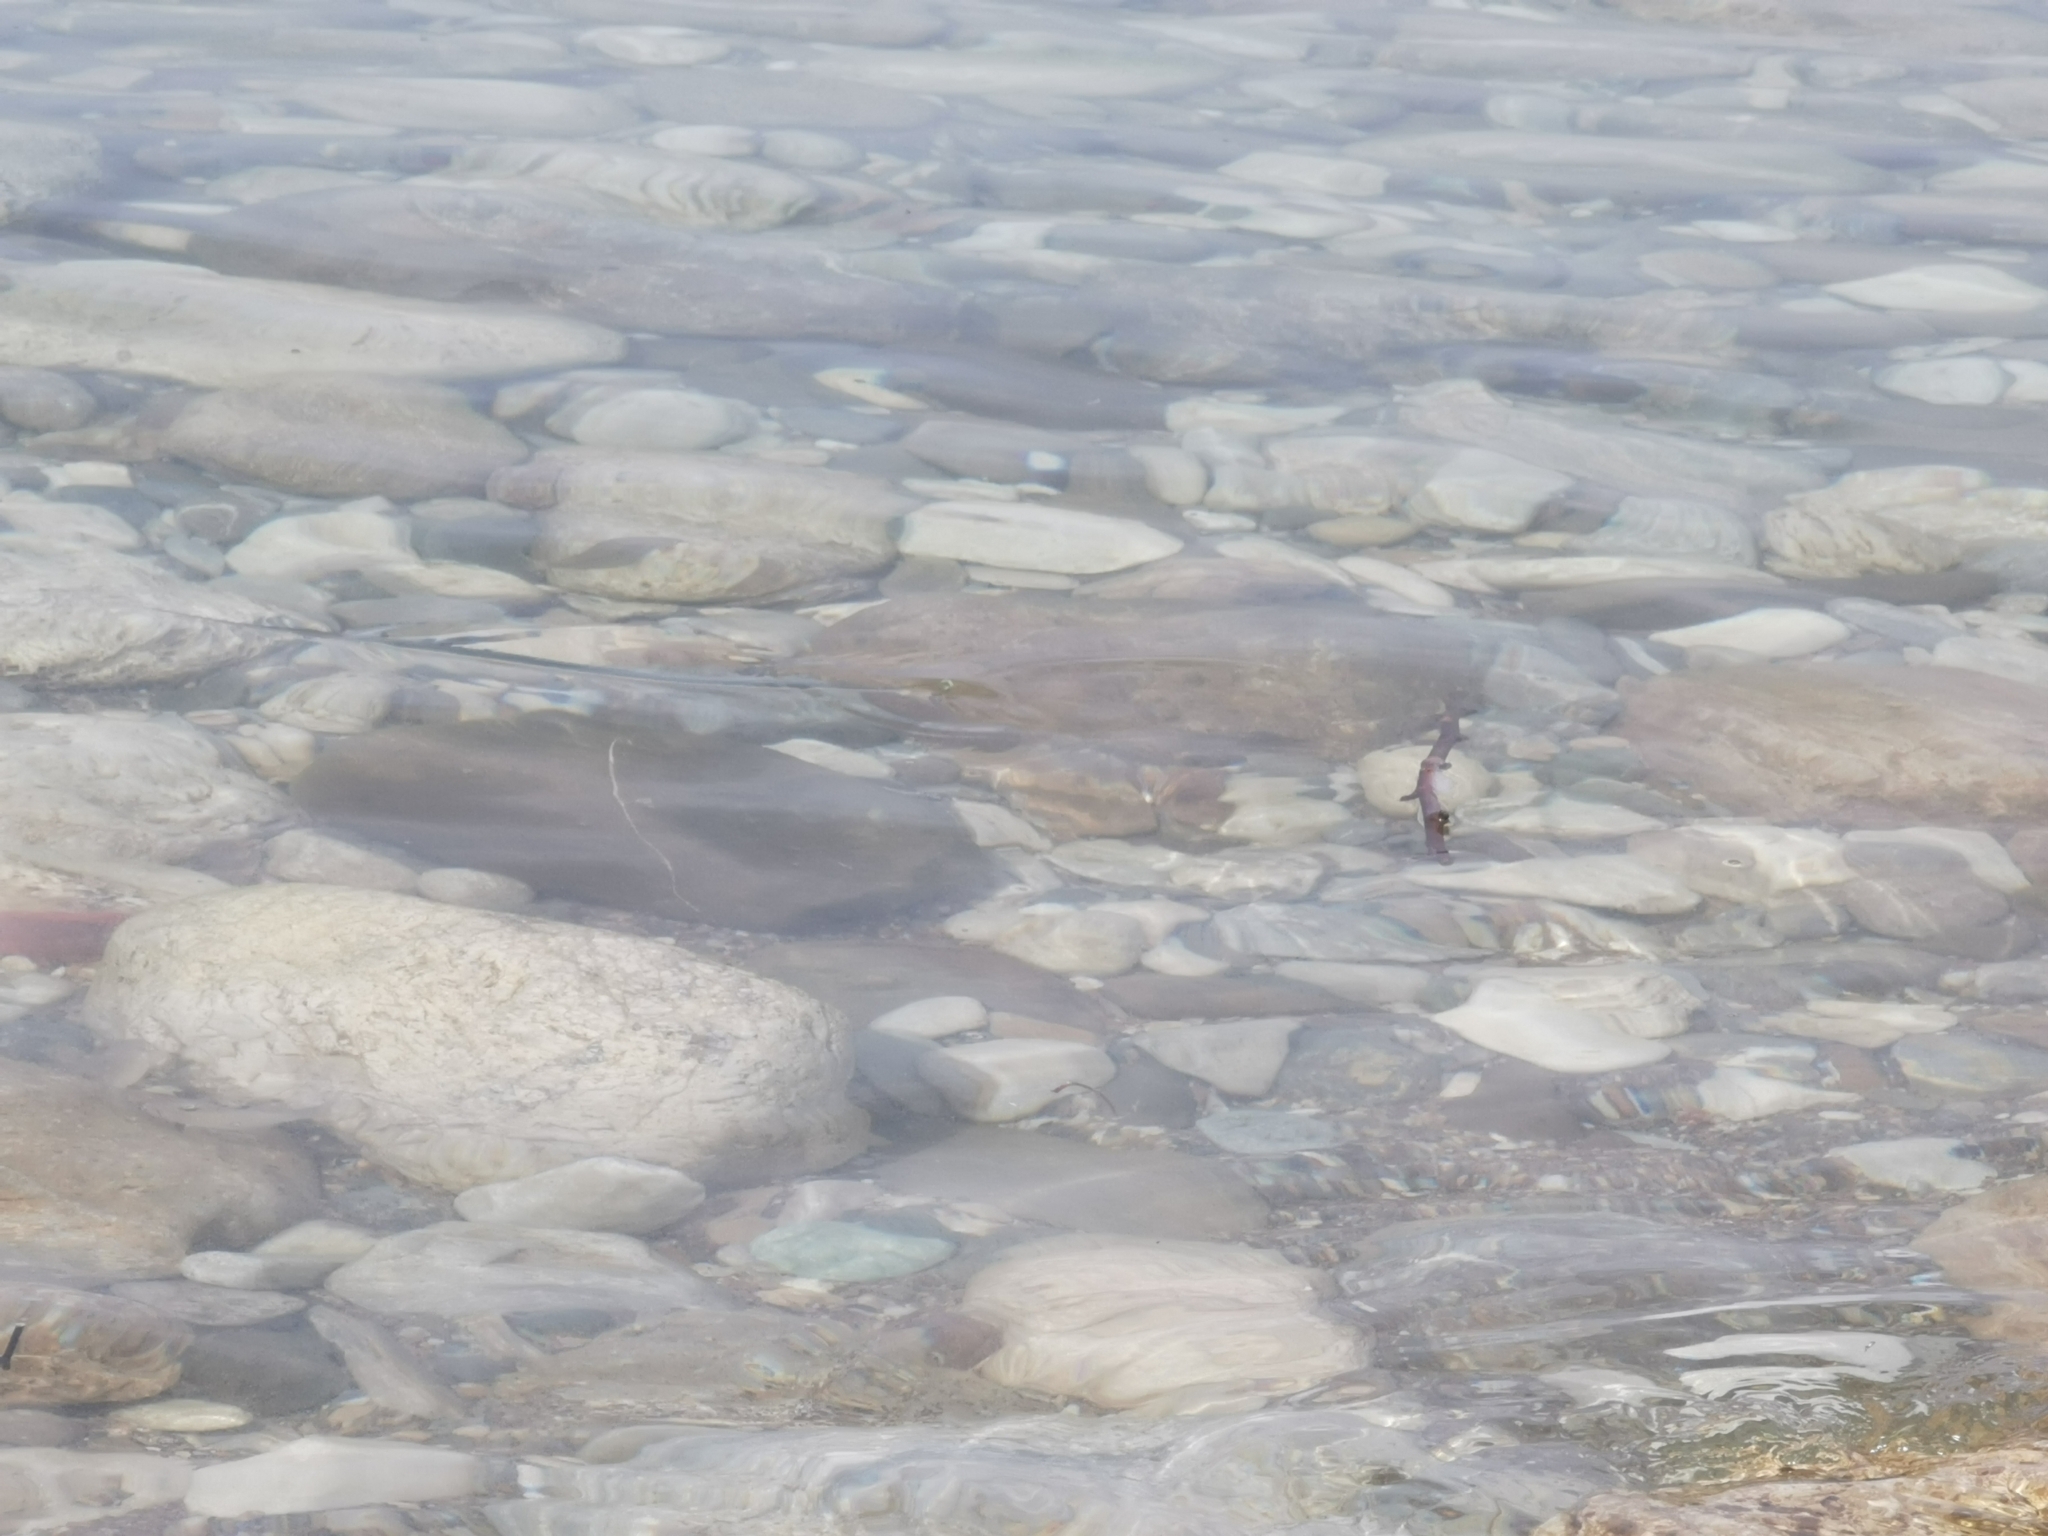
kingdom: Animalia
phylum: Chordata
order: Beloniformes
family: Belonidae
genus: Belone
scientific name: Belone
